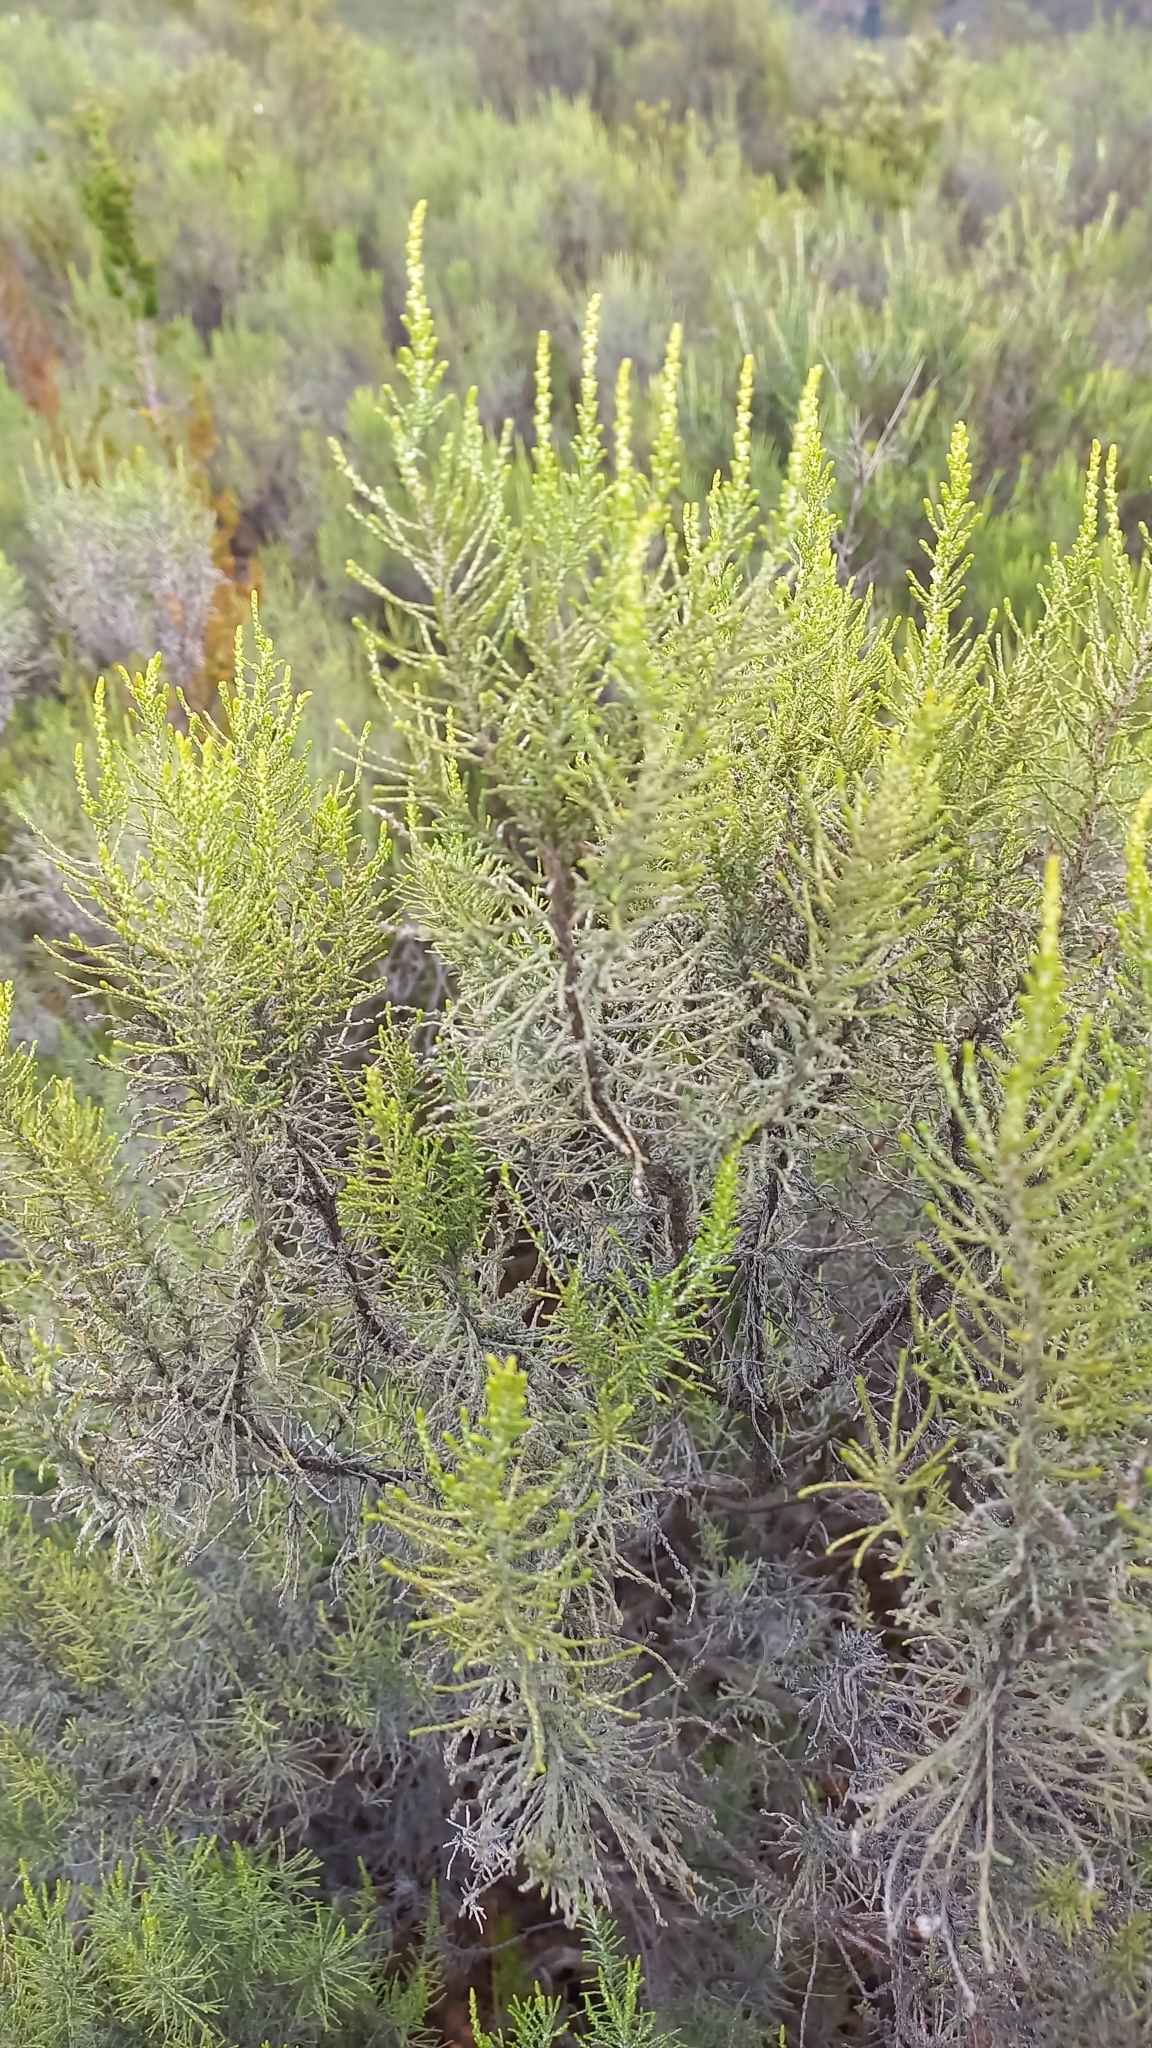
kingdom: Plantae
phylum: Tracheophyta
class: Magnoliopsida
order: Asterales
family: Asteraceae
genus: Dicerothamnus
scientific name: Dicerothamnus rhinocerotis
